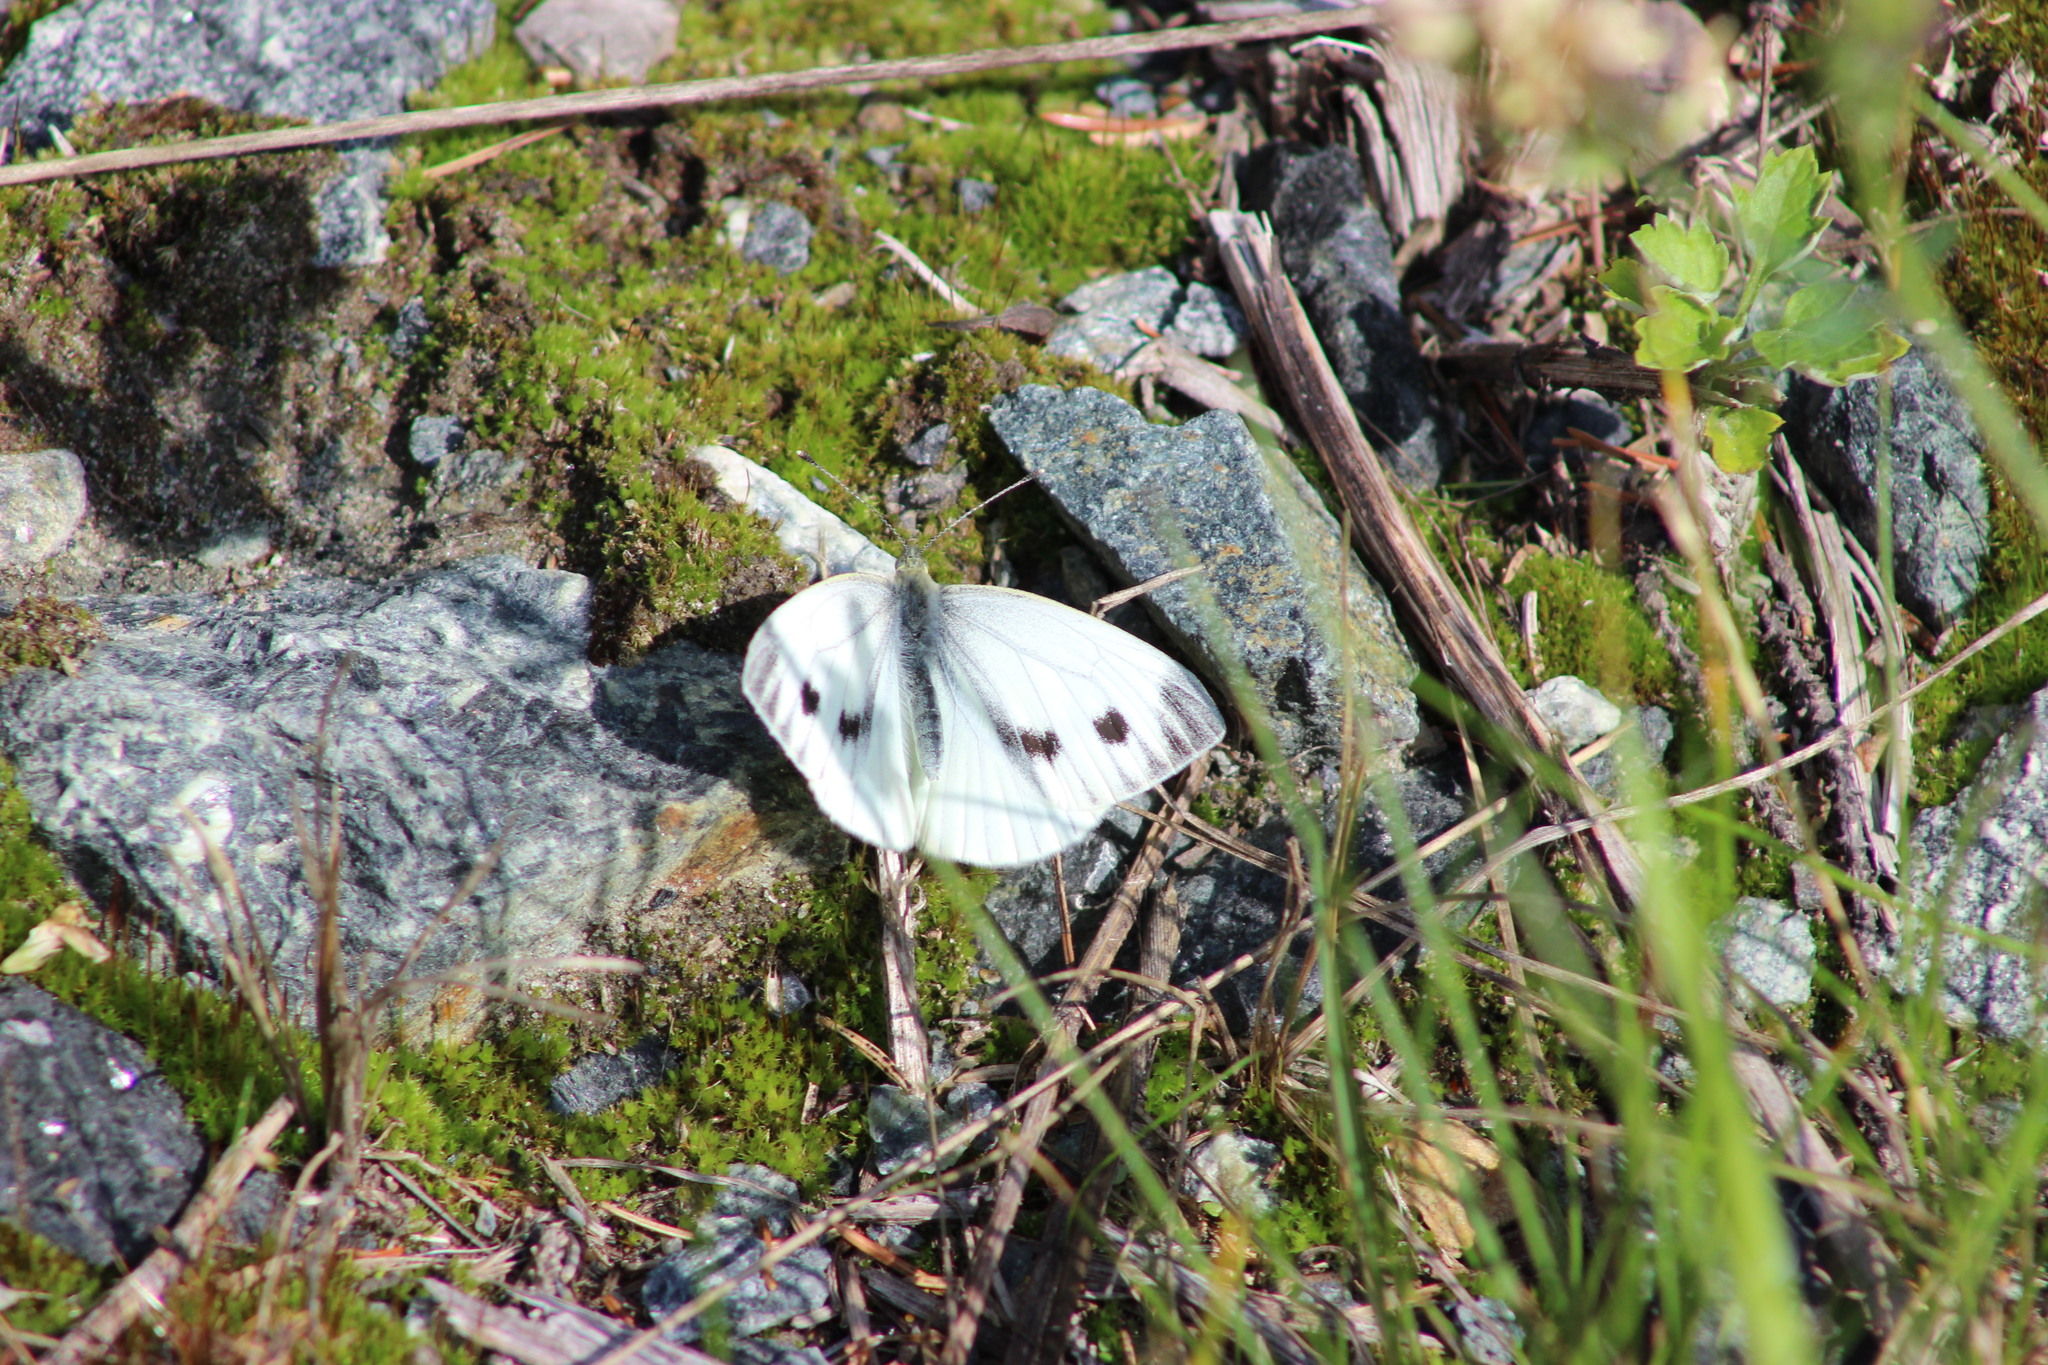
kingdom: Animalia
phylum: Arthropoda
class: Insecta
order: Lepidoptera
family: Pieridae
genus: Pieris
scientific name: Pieris napi
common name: Green-veined white
